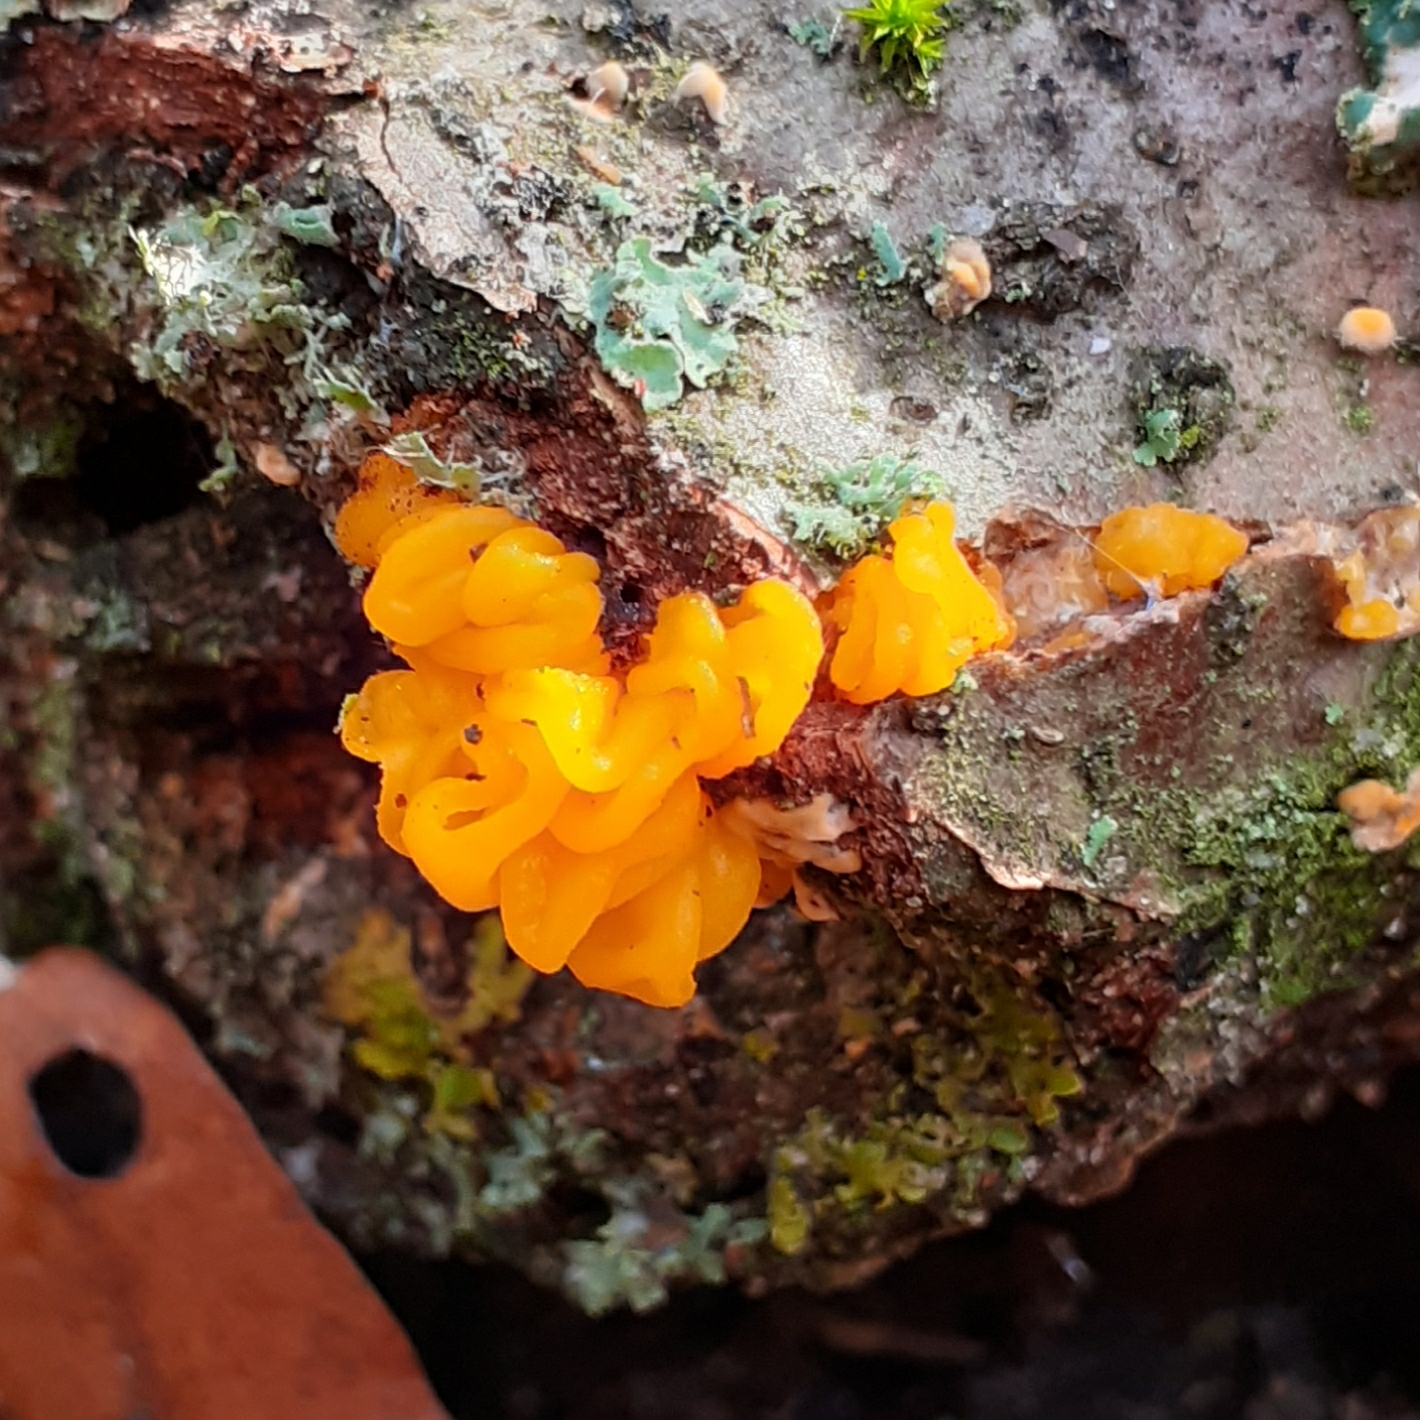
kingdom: Fungi
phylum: Basidiomycota
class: Tremellomycetes
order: Tremellales
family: Naemateliaceae
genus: Naematelia
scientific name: Naematelia aurantia
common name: Golden ear
